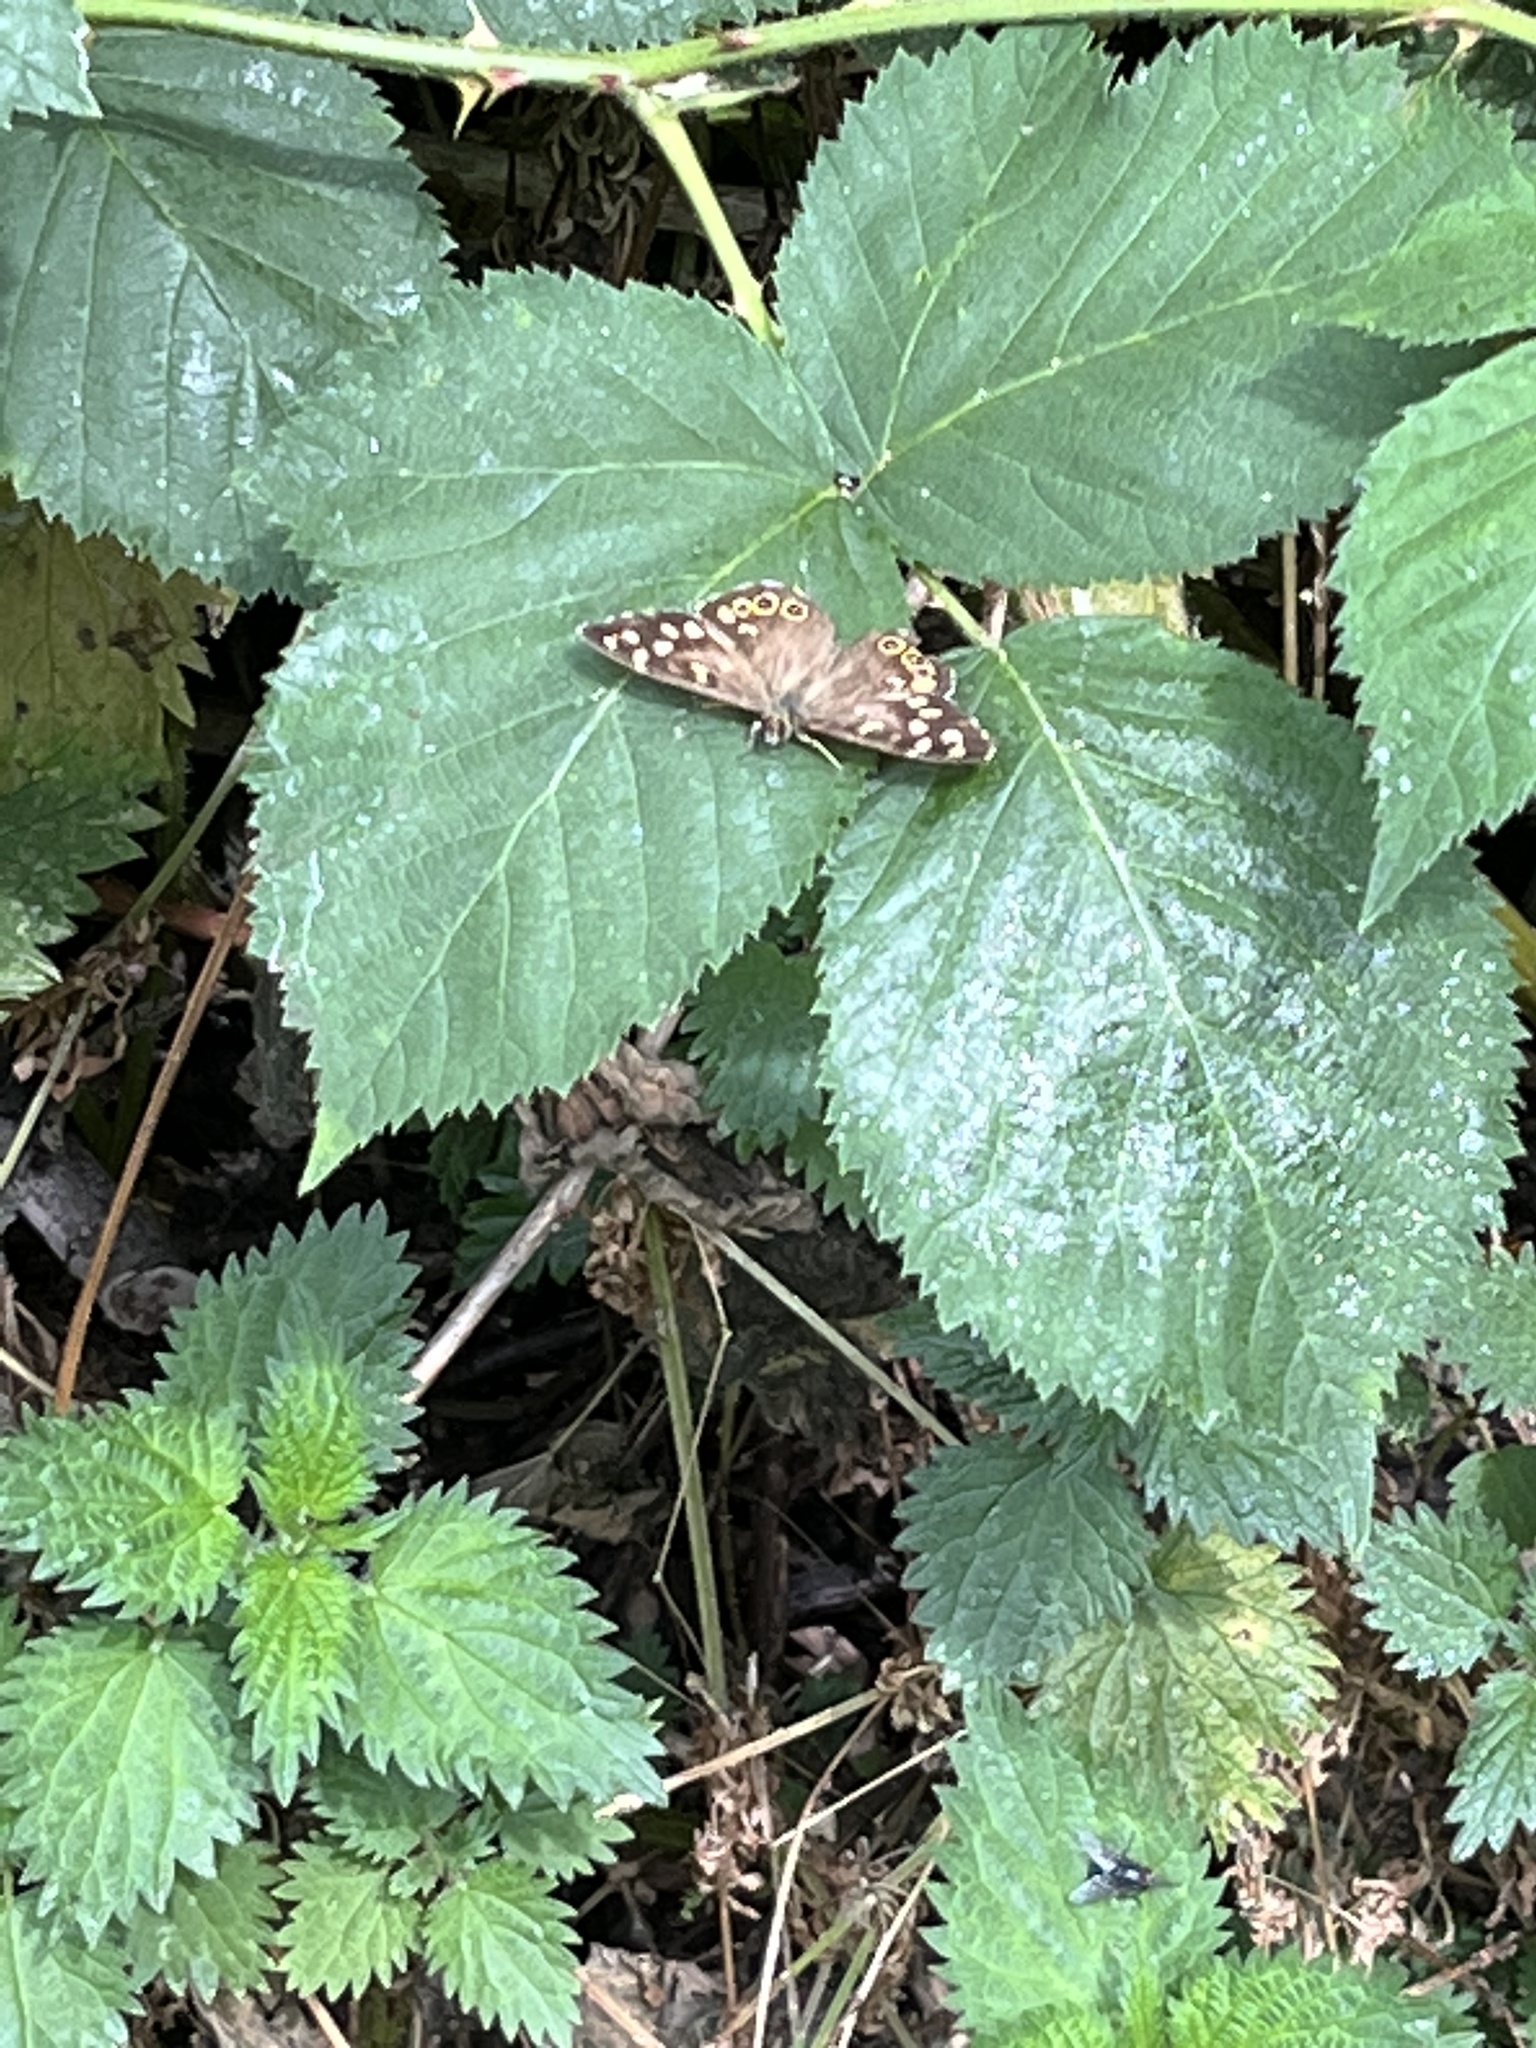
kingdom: Animalia
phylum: Arthropoda
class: Insecta
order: Lepidoptera
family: Nymphalidae
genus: Pararge
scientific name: Pararge aegeria
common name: Speckled wood
